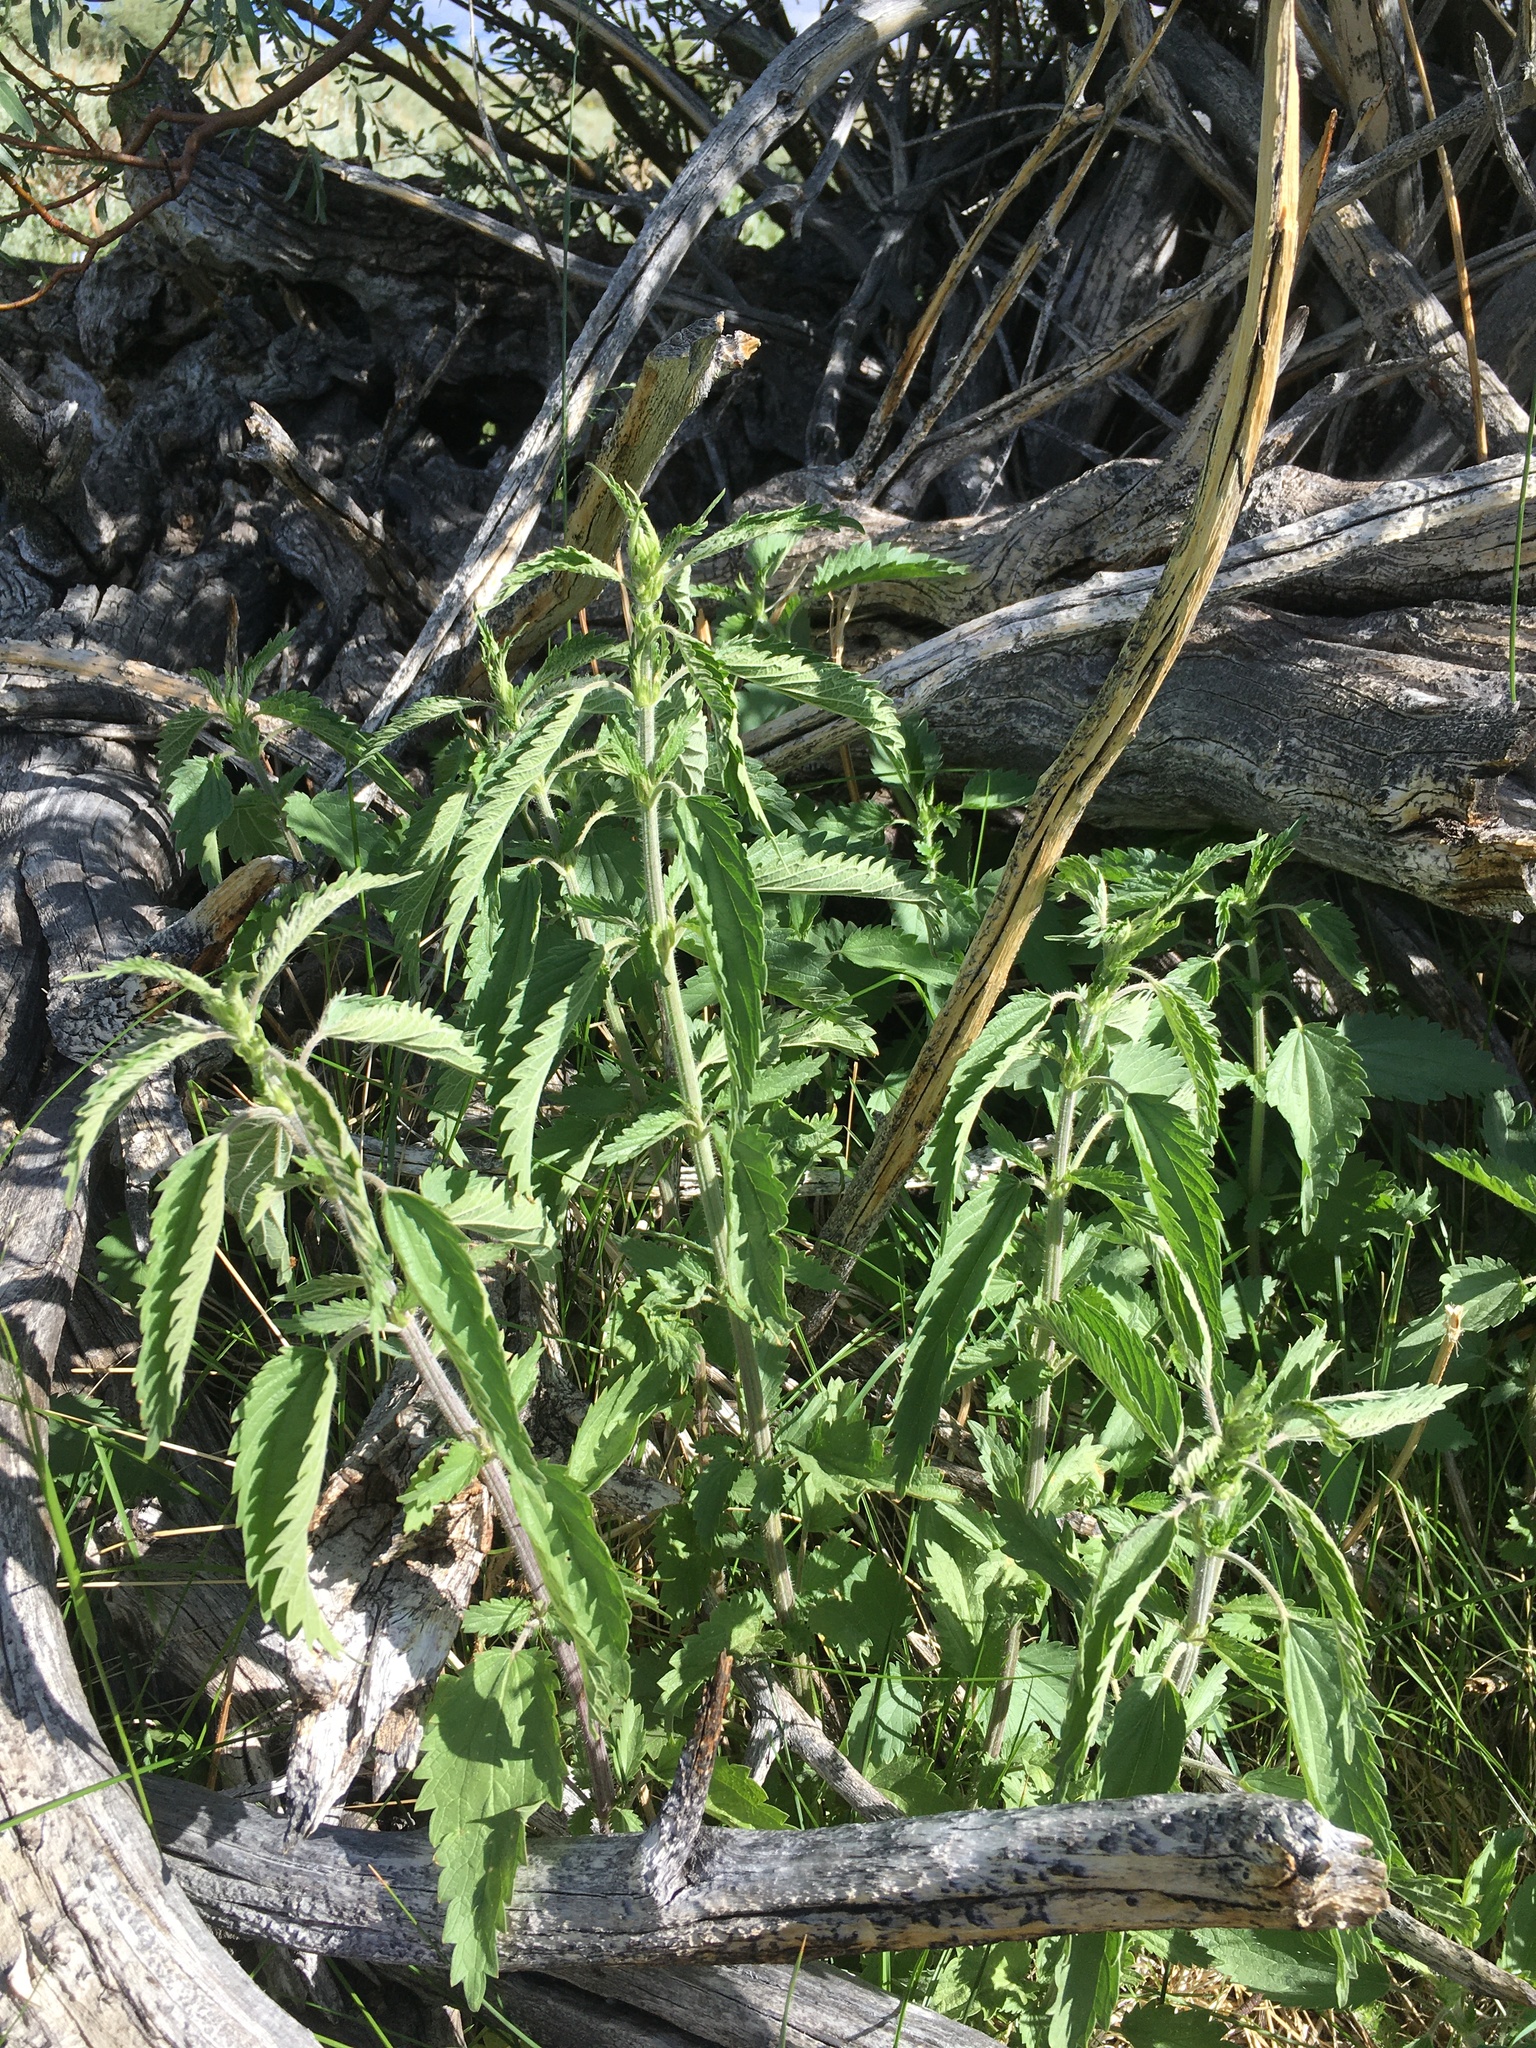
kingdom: Plantae
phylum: Tracheophyta
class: Magnoliopsida
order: Rosales
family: Urticaceae
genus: Urtica
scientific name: Urtica gracilis
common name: Slender stinging nettle
